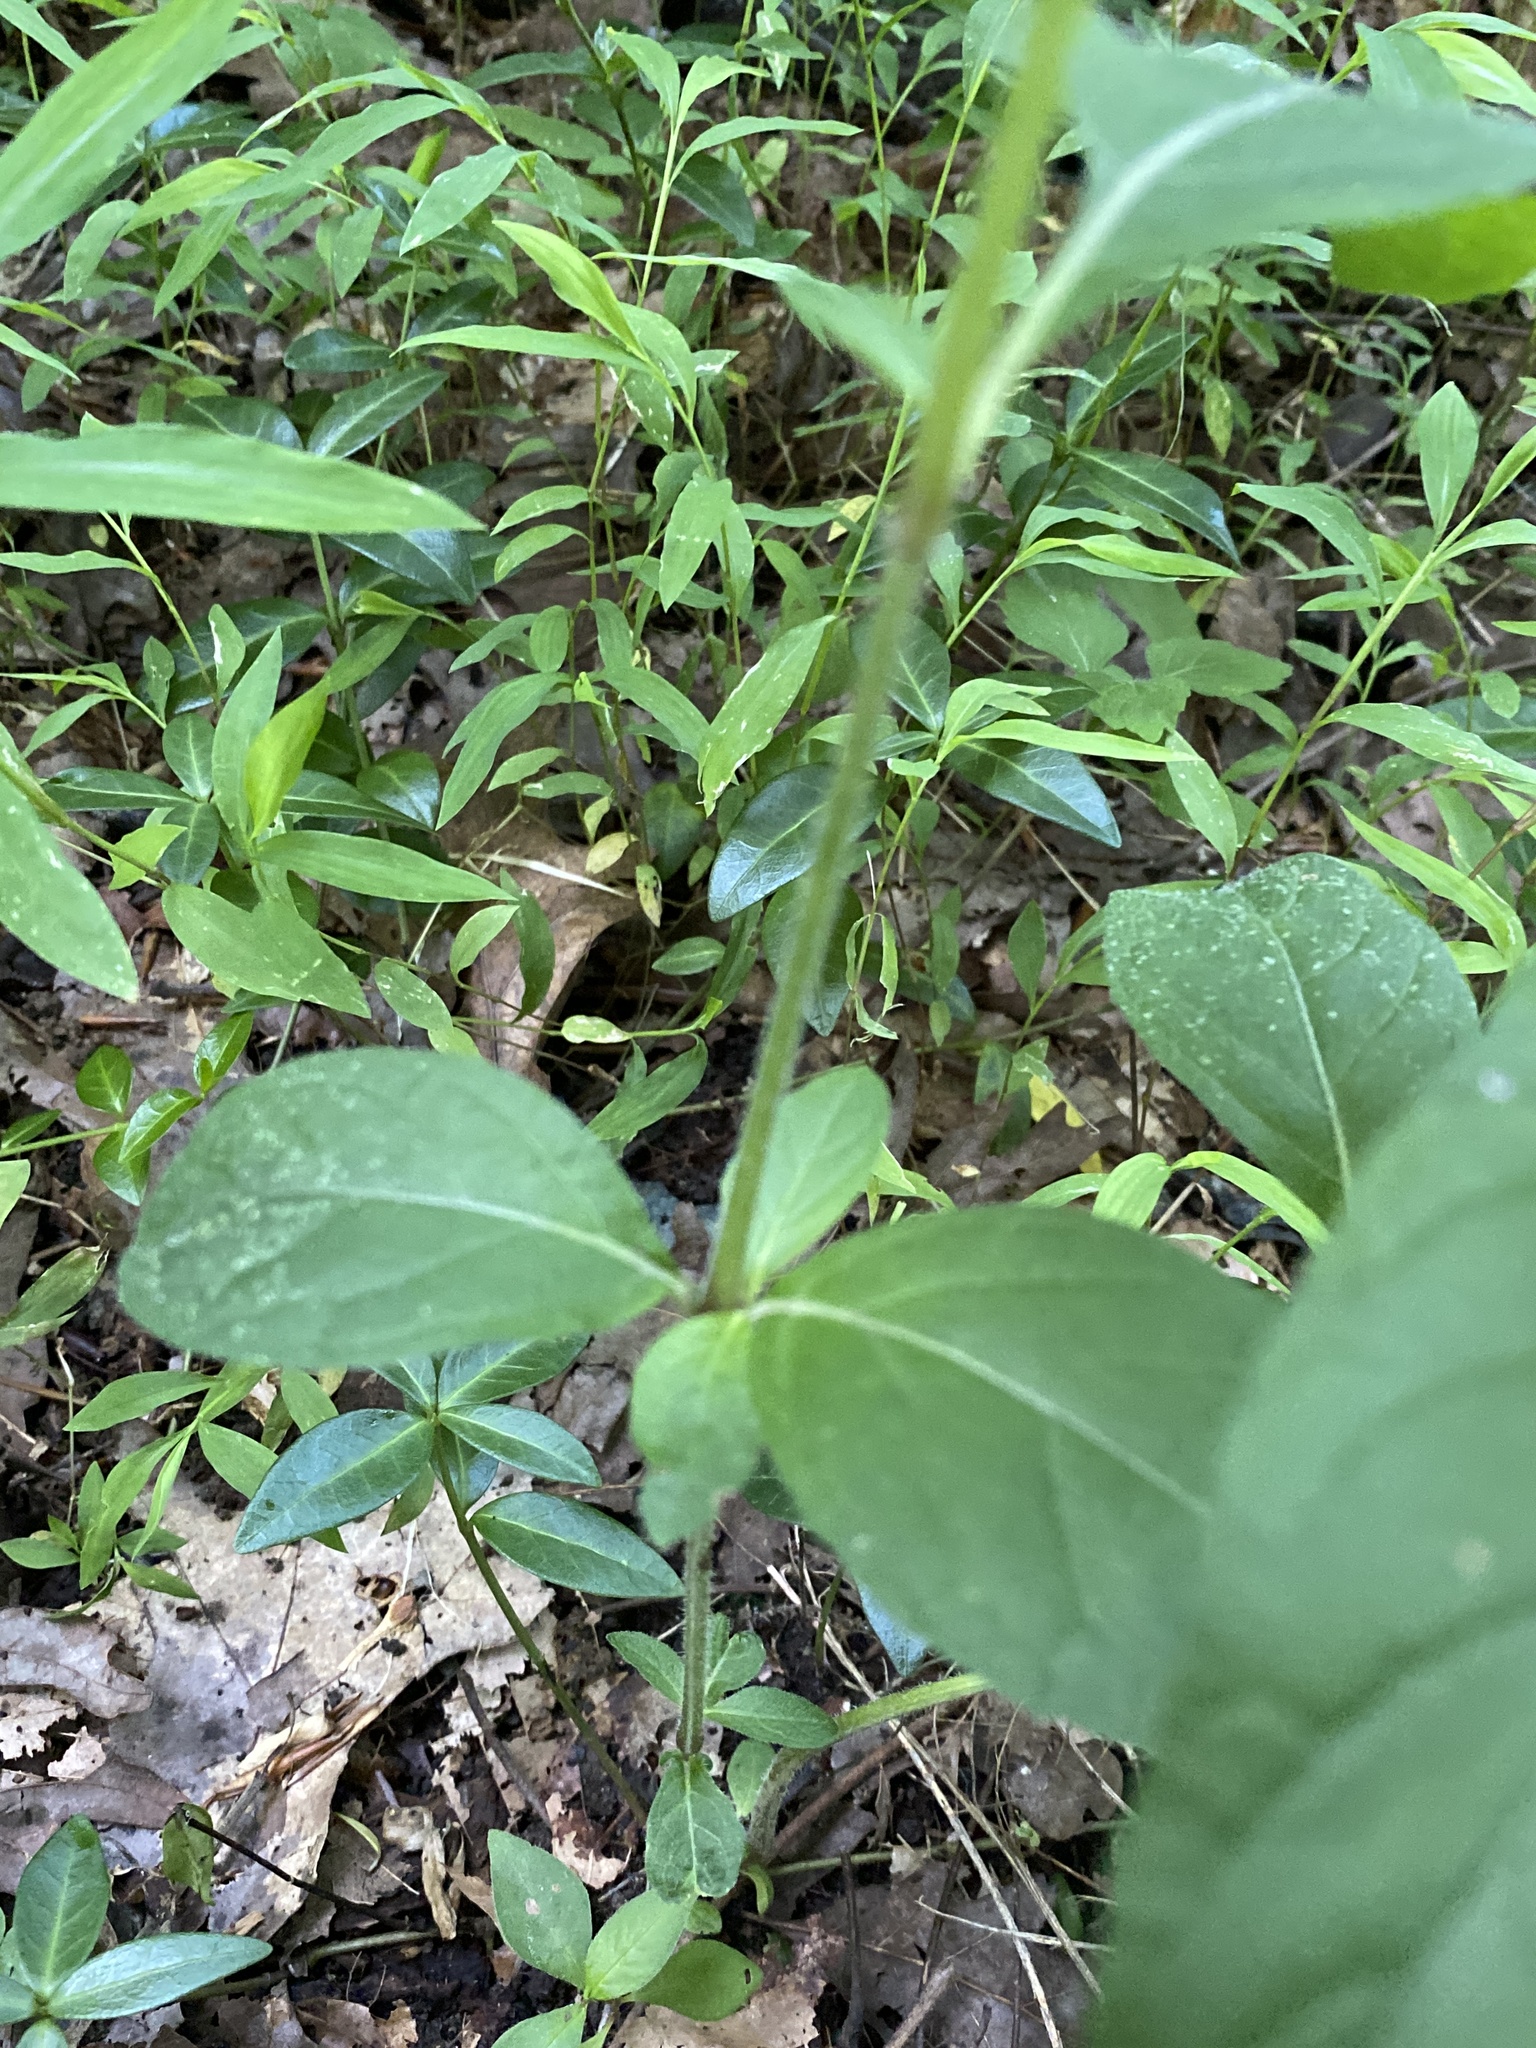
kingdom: Plantae
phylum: Tracheophyta
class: Magnoliopsida
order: Lamiales
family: Acanthaceae
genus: Ruellia
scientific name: Ruellia caroliniensis
